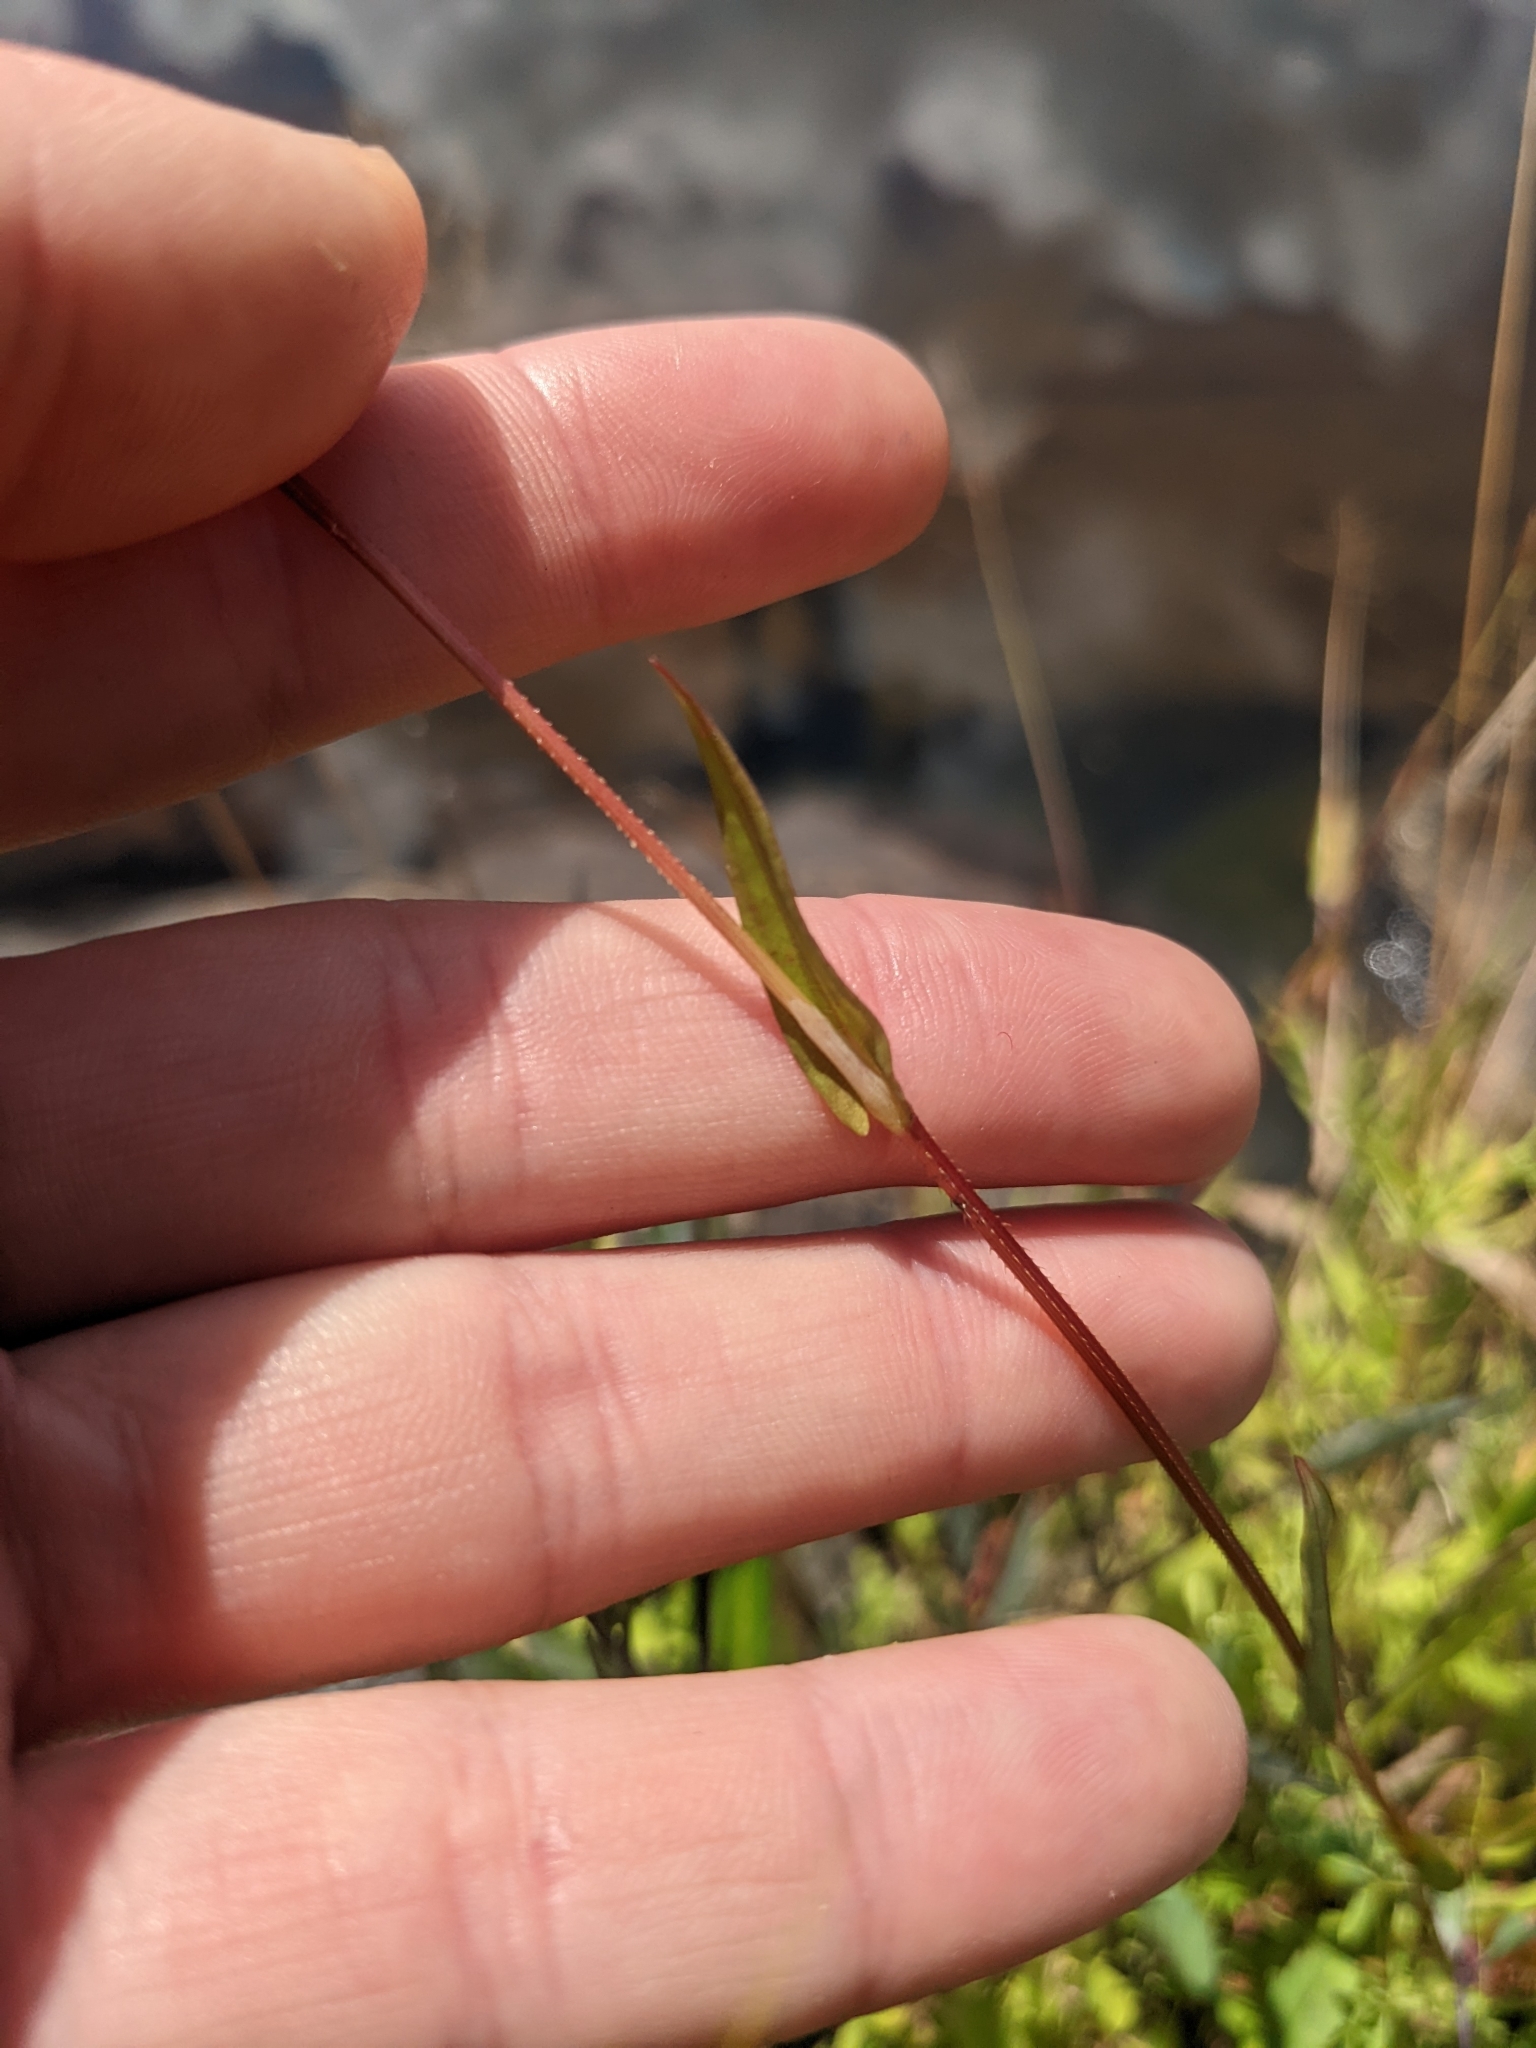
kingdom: Plantae
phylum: Tracheophyta
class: Magnoliopsida
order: Caryophyllales
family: Polygonaceae
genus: Persicaria
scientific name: Persicaria sagittata
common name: American tearthumb
